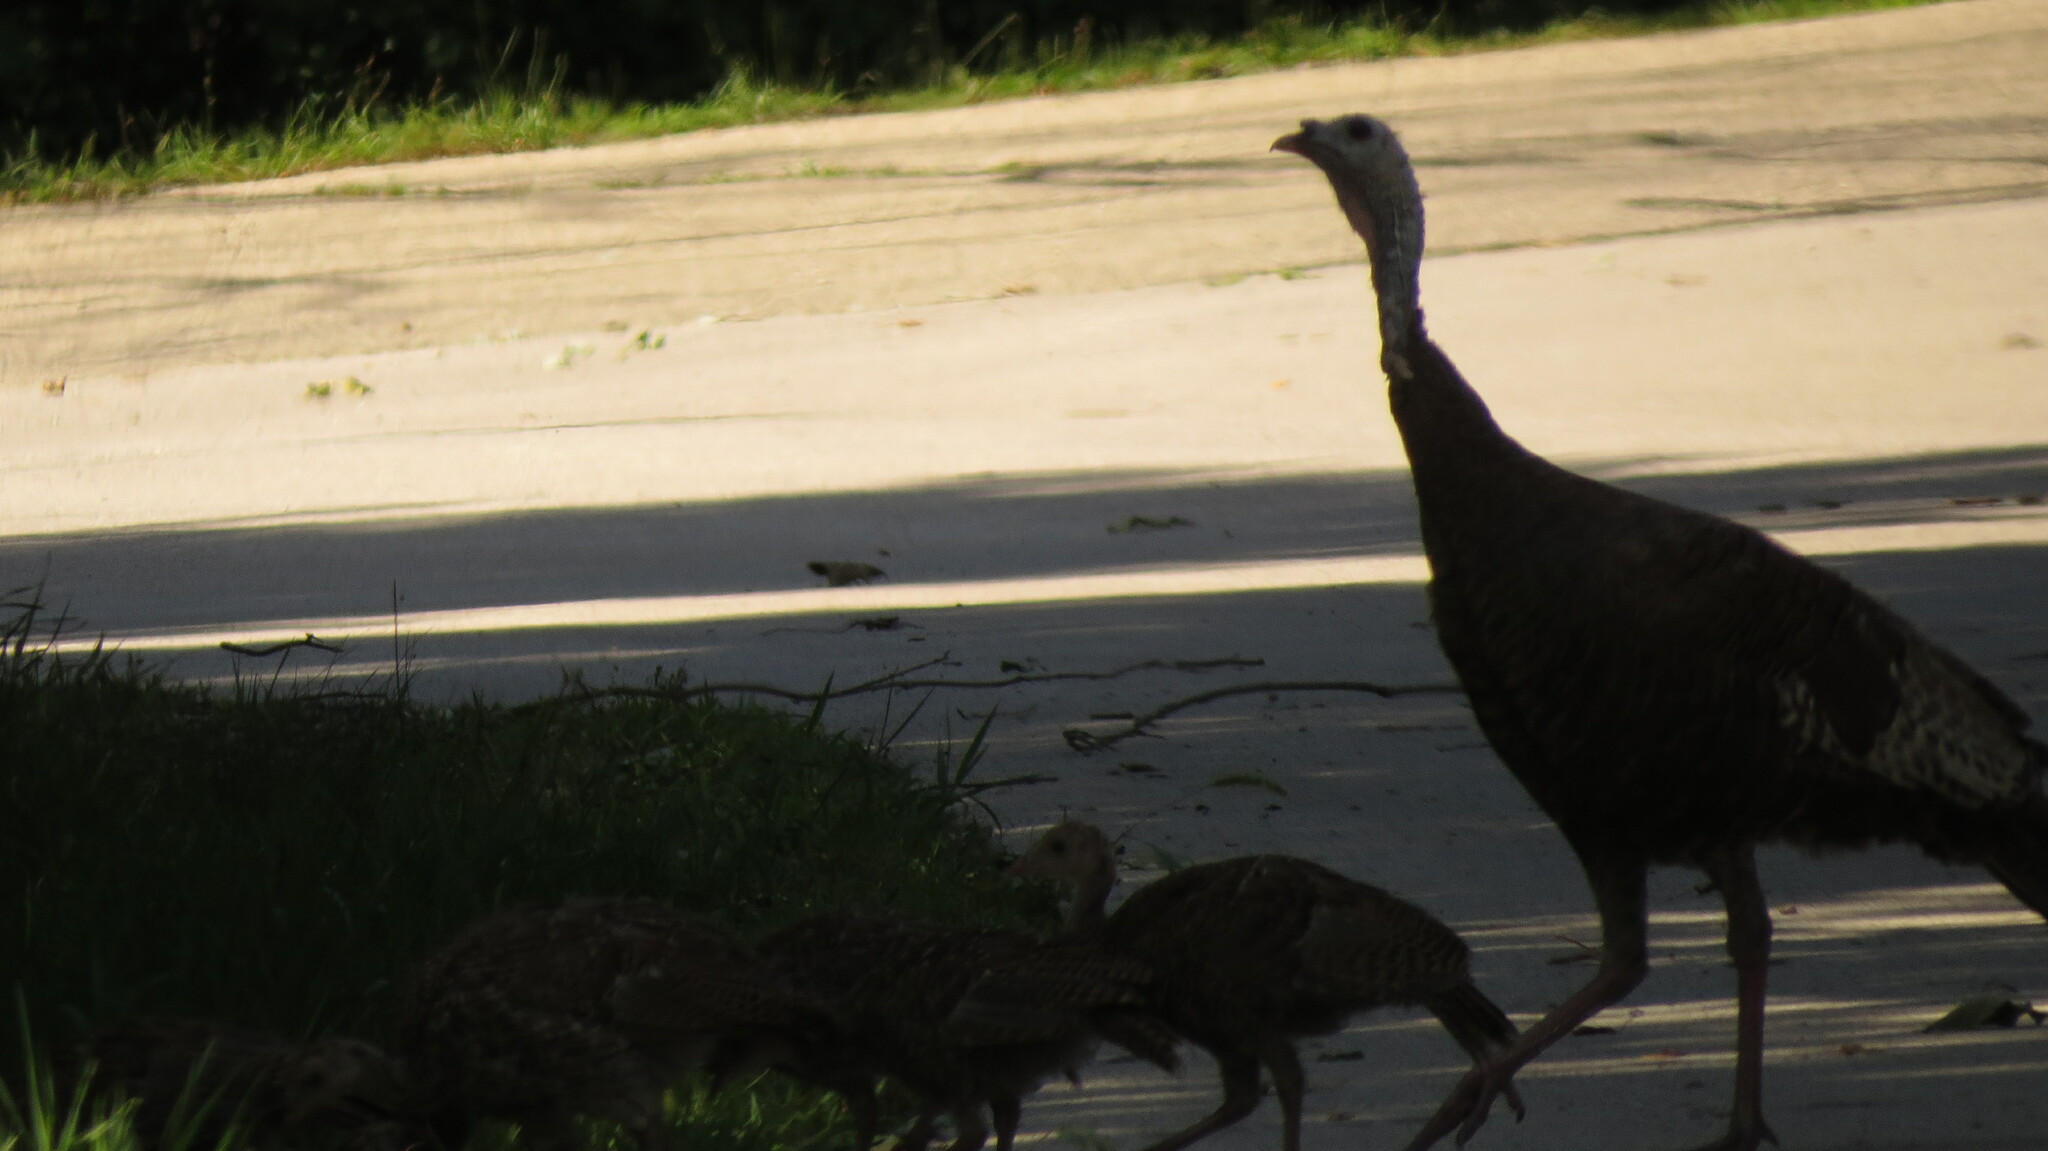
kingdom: Animalia
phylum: Chordata
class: Aves
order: Galliformes
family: Phasianidae
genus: Meleagris
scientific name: Meleagris gallopavo
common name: Wild turkey
